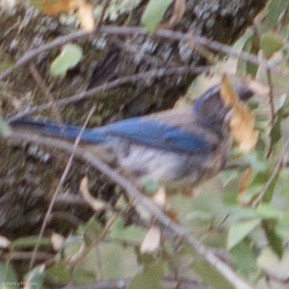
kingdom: Animalia
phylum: Chordata
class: Aves
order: Passeriformes
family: Corvidae
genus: Aphelocoma
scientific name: Aphelocoma californica
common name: California scrub-jay
